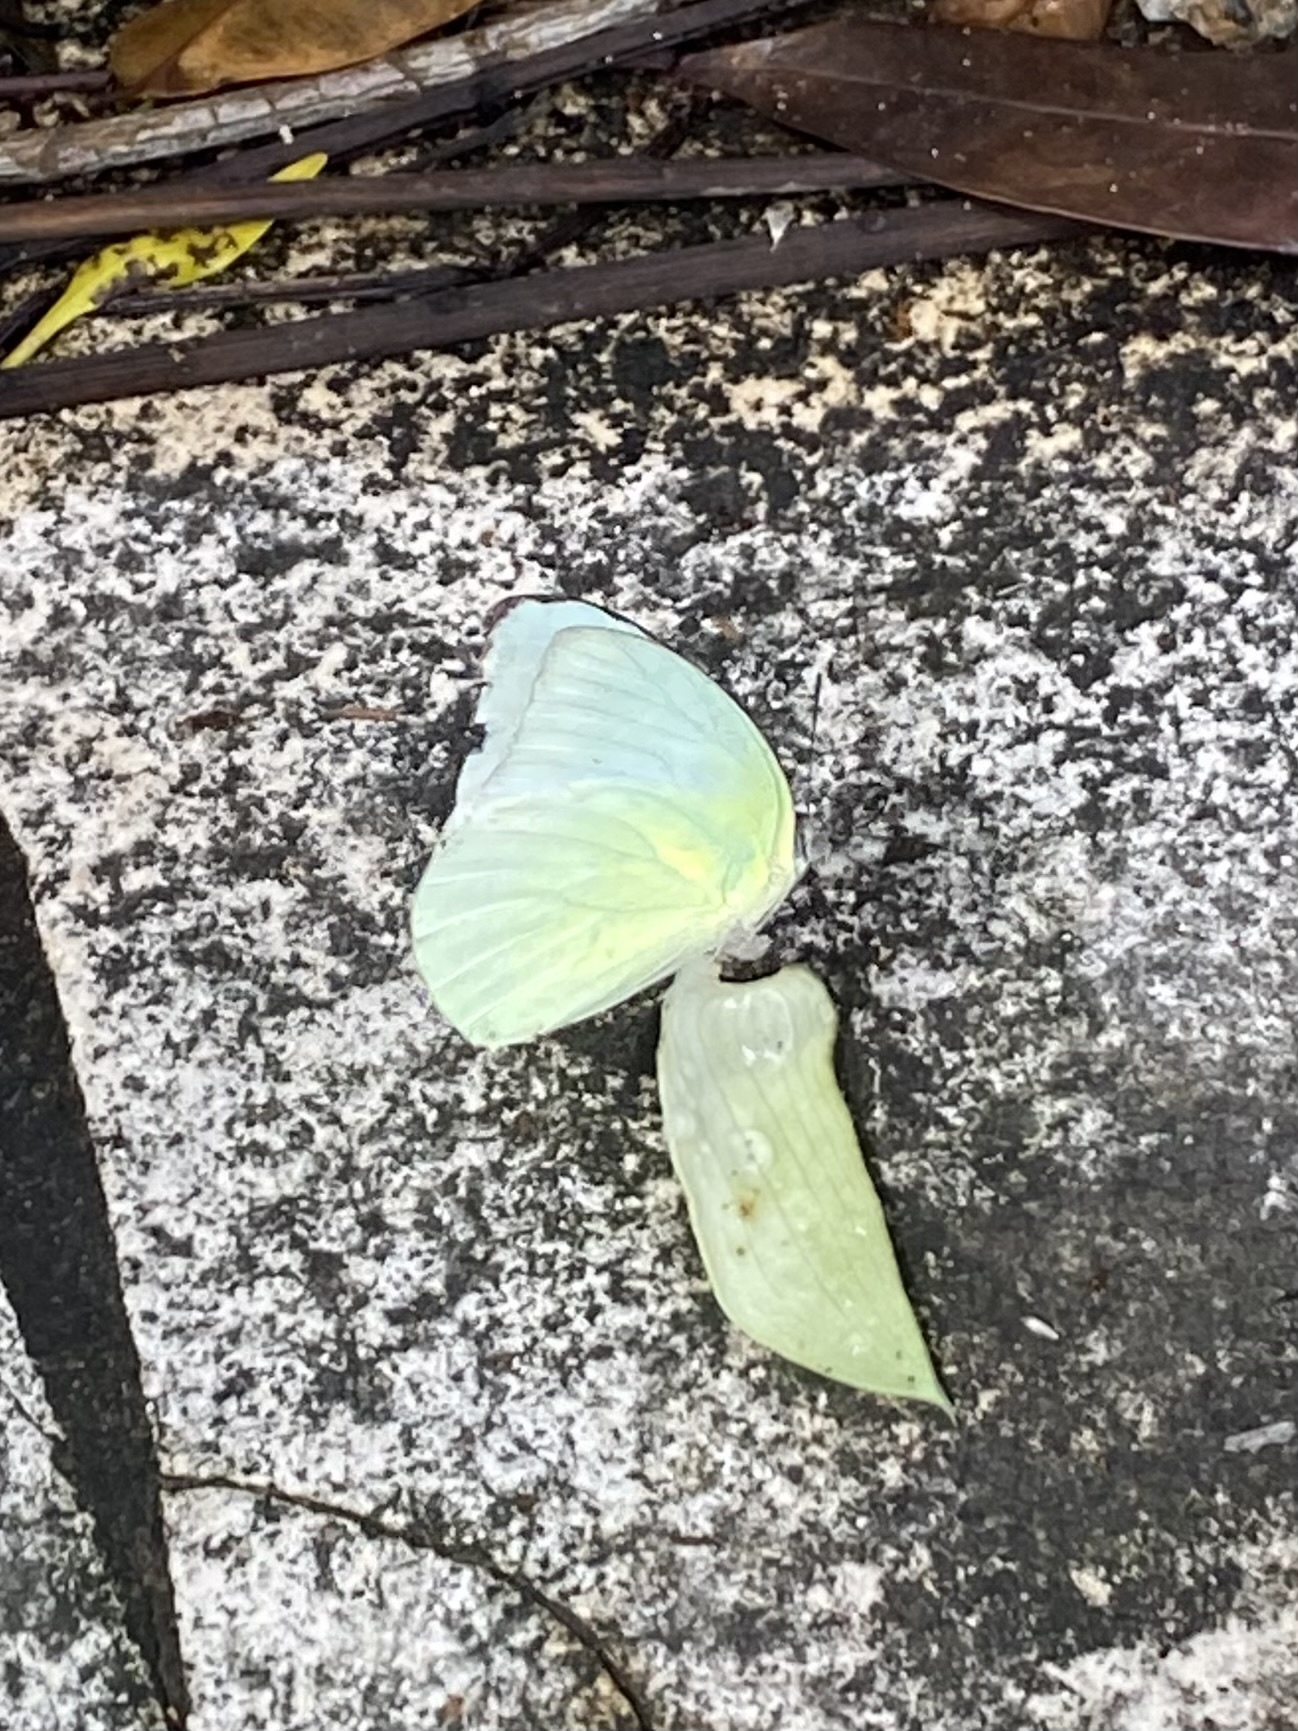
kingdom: Animalia
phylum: Arthropoda
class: Insecta
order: Lepidoptera
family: Pieridae
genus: Catopsilia
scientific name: Catopsilia pomona
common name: Common emigrant
